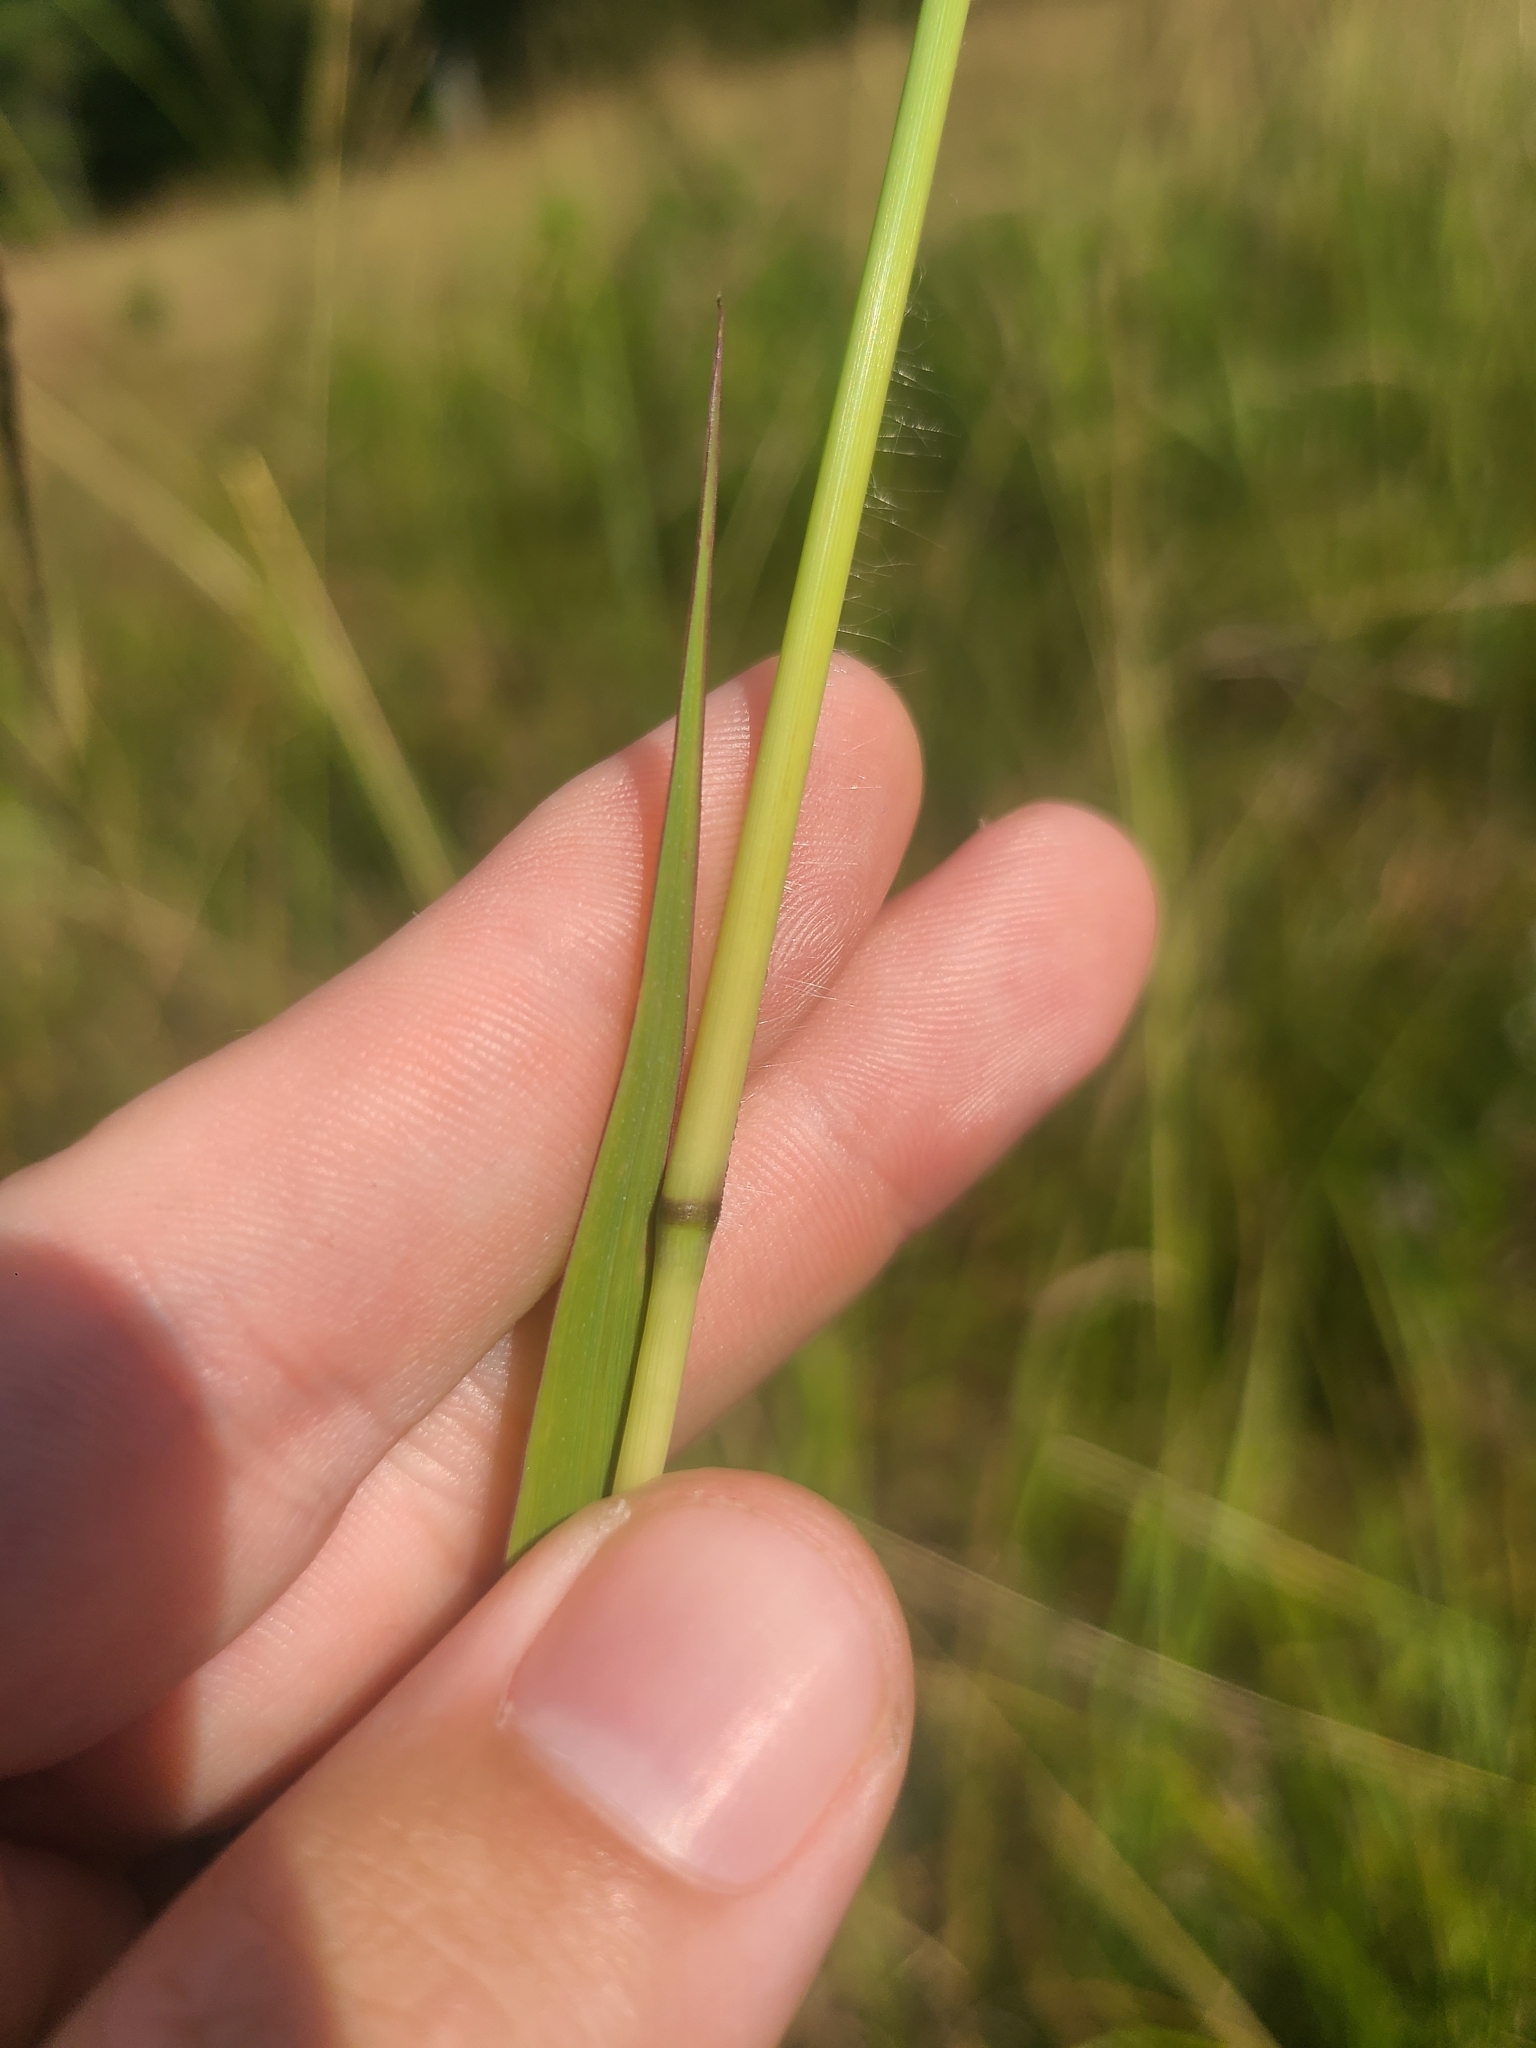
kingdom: Plantae
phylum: Tracheophyta
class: Liliopsida
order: Poales
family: Poaceae
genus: Paspalum
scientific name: Paspalum urvillei
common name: Vasey's grass
